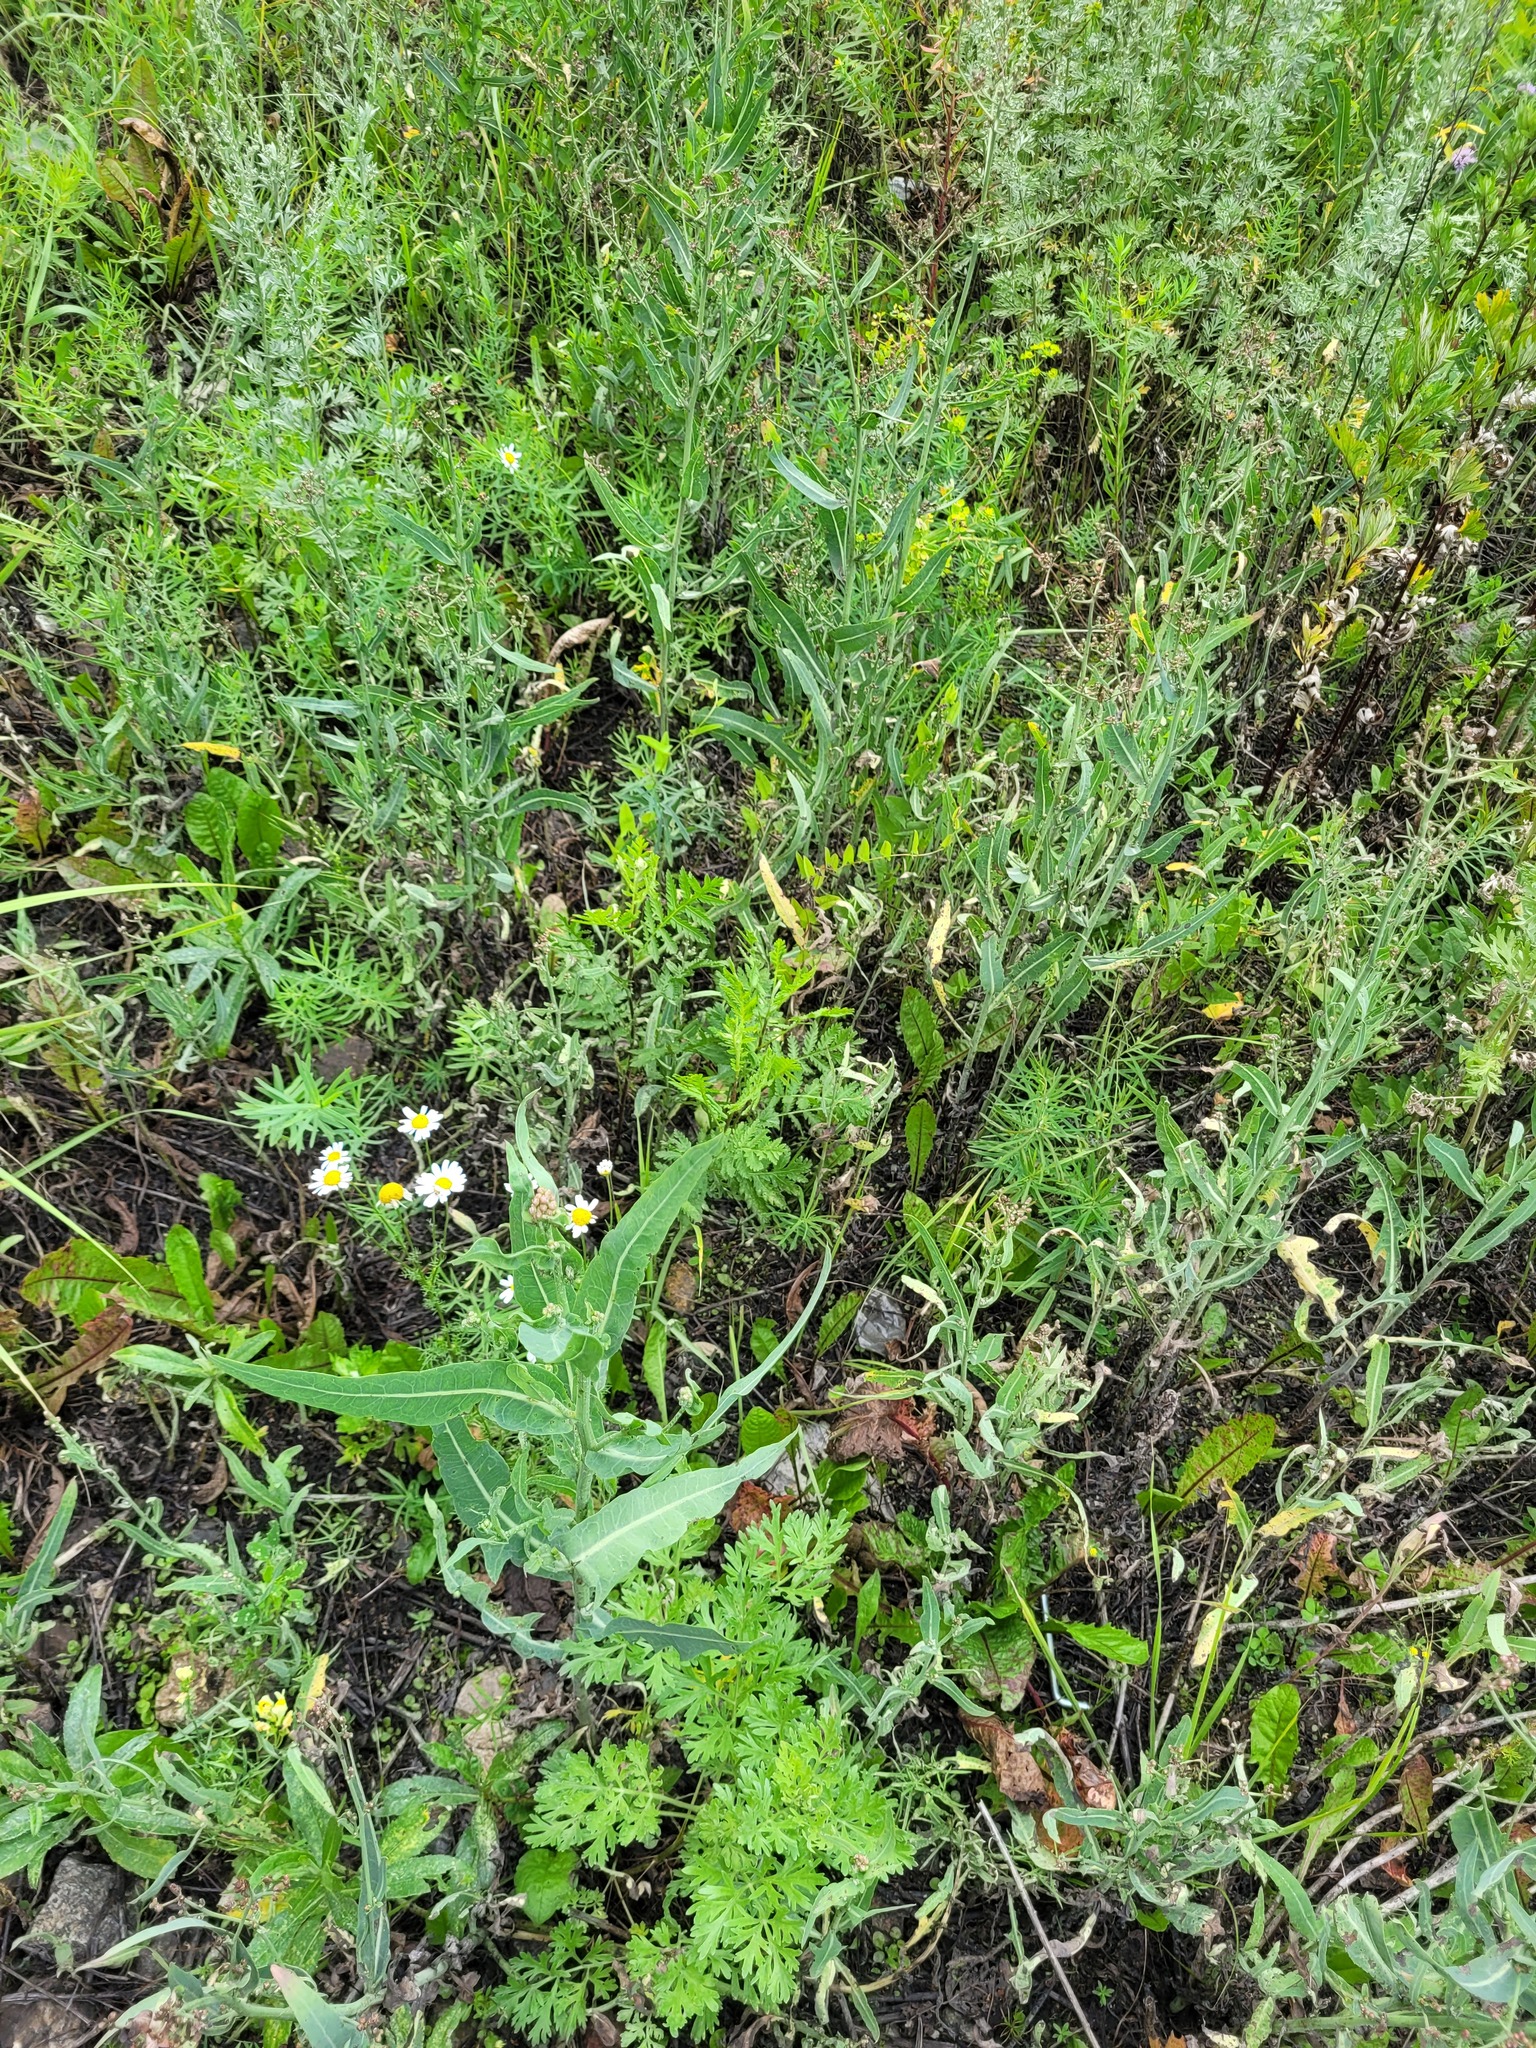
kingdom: Plantae
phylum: Tracheophyta
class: Magnoliopsida
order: Asterales
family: Asteraceae
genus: Lactuca
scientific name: Lactuca tatarica
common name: Blue lettuce
